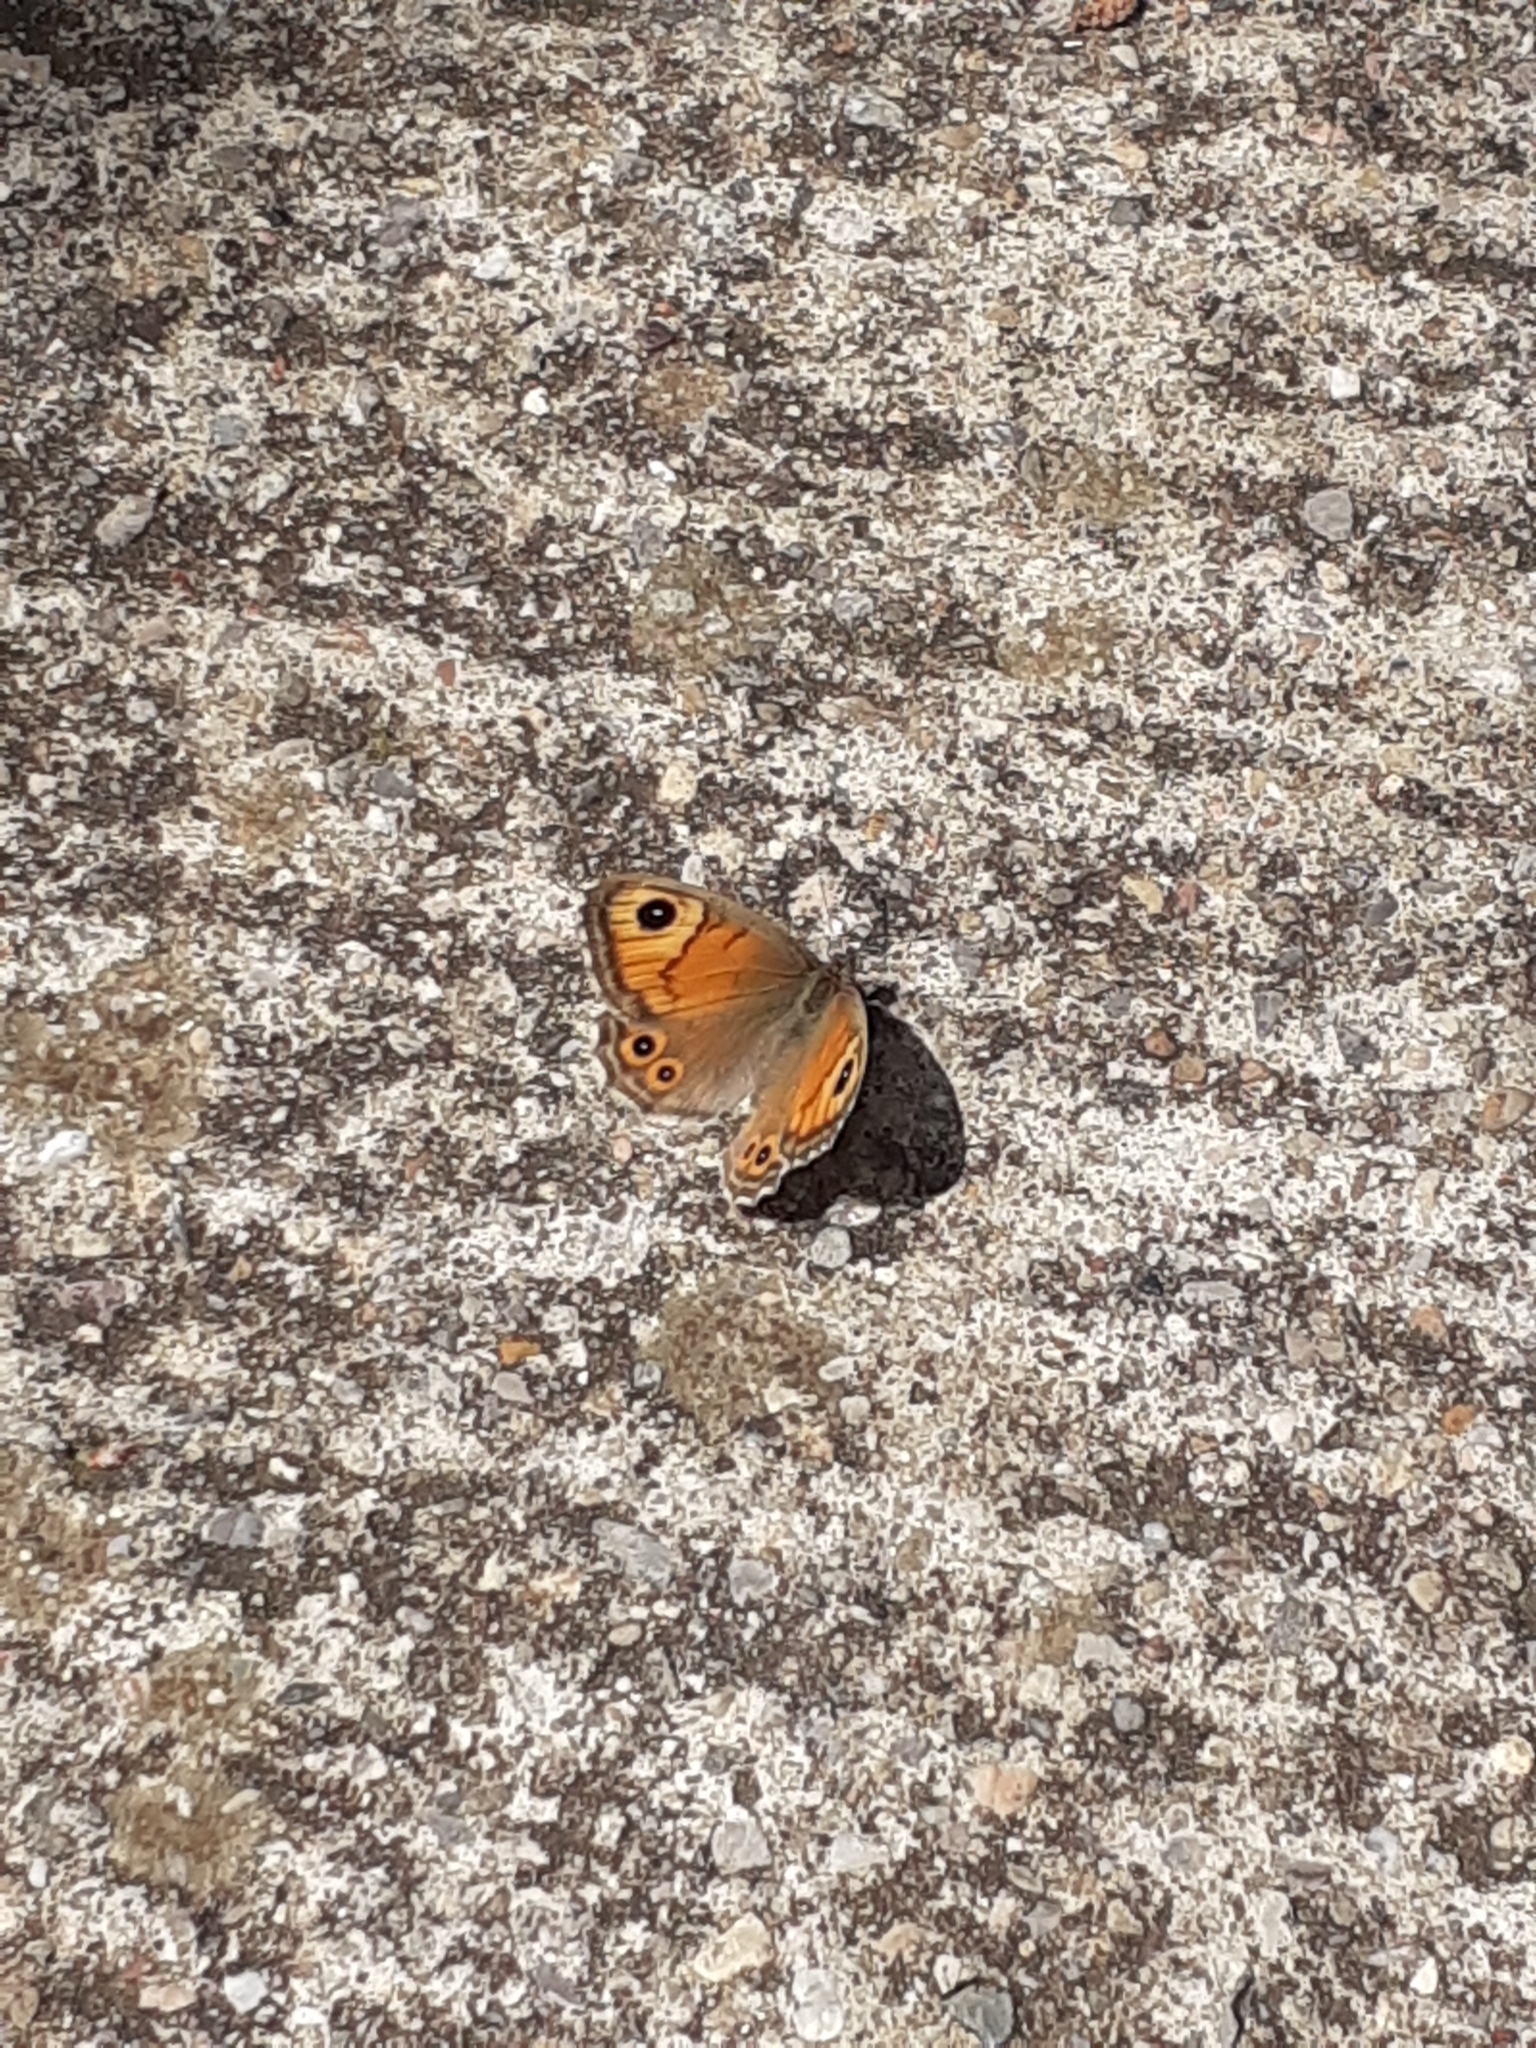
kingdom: Animalia
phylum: Arthropoda
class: Insecta
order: Lepidoptera
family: Nymphalidae
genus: Pararge
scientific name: Pararge Lasiommata maera
